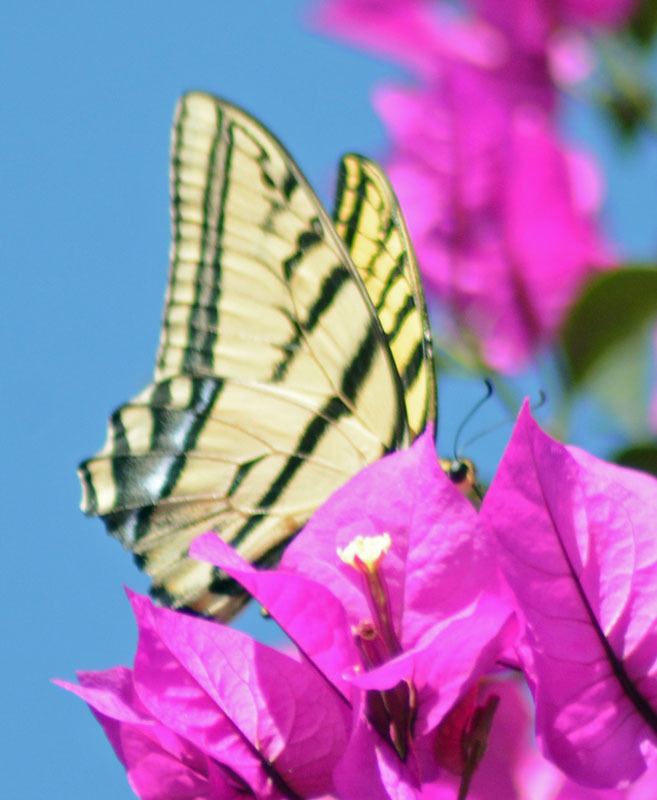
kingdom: Animalia
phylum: Arthropoda
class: Insecta
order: Lepidoptera
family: Papilionidae
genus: Papilio
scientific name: Papilio multicaudata
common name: Two-tailed tiger swallowtail
